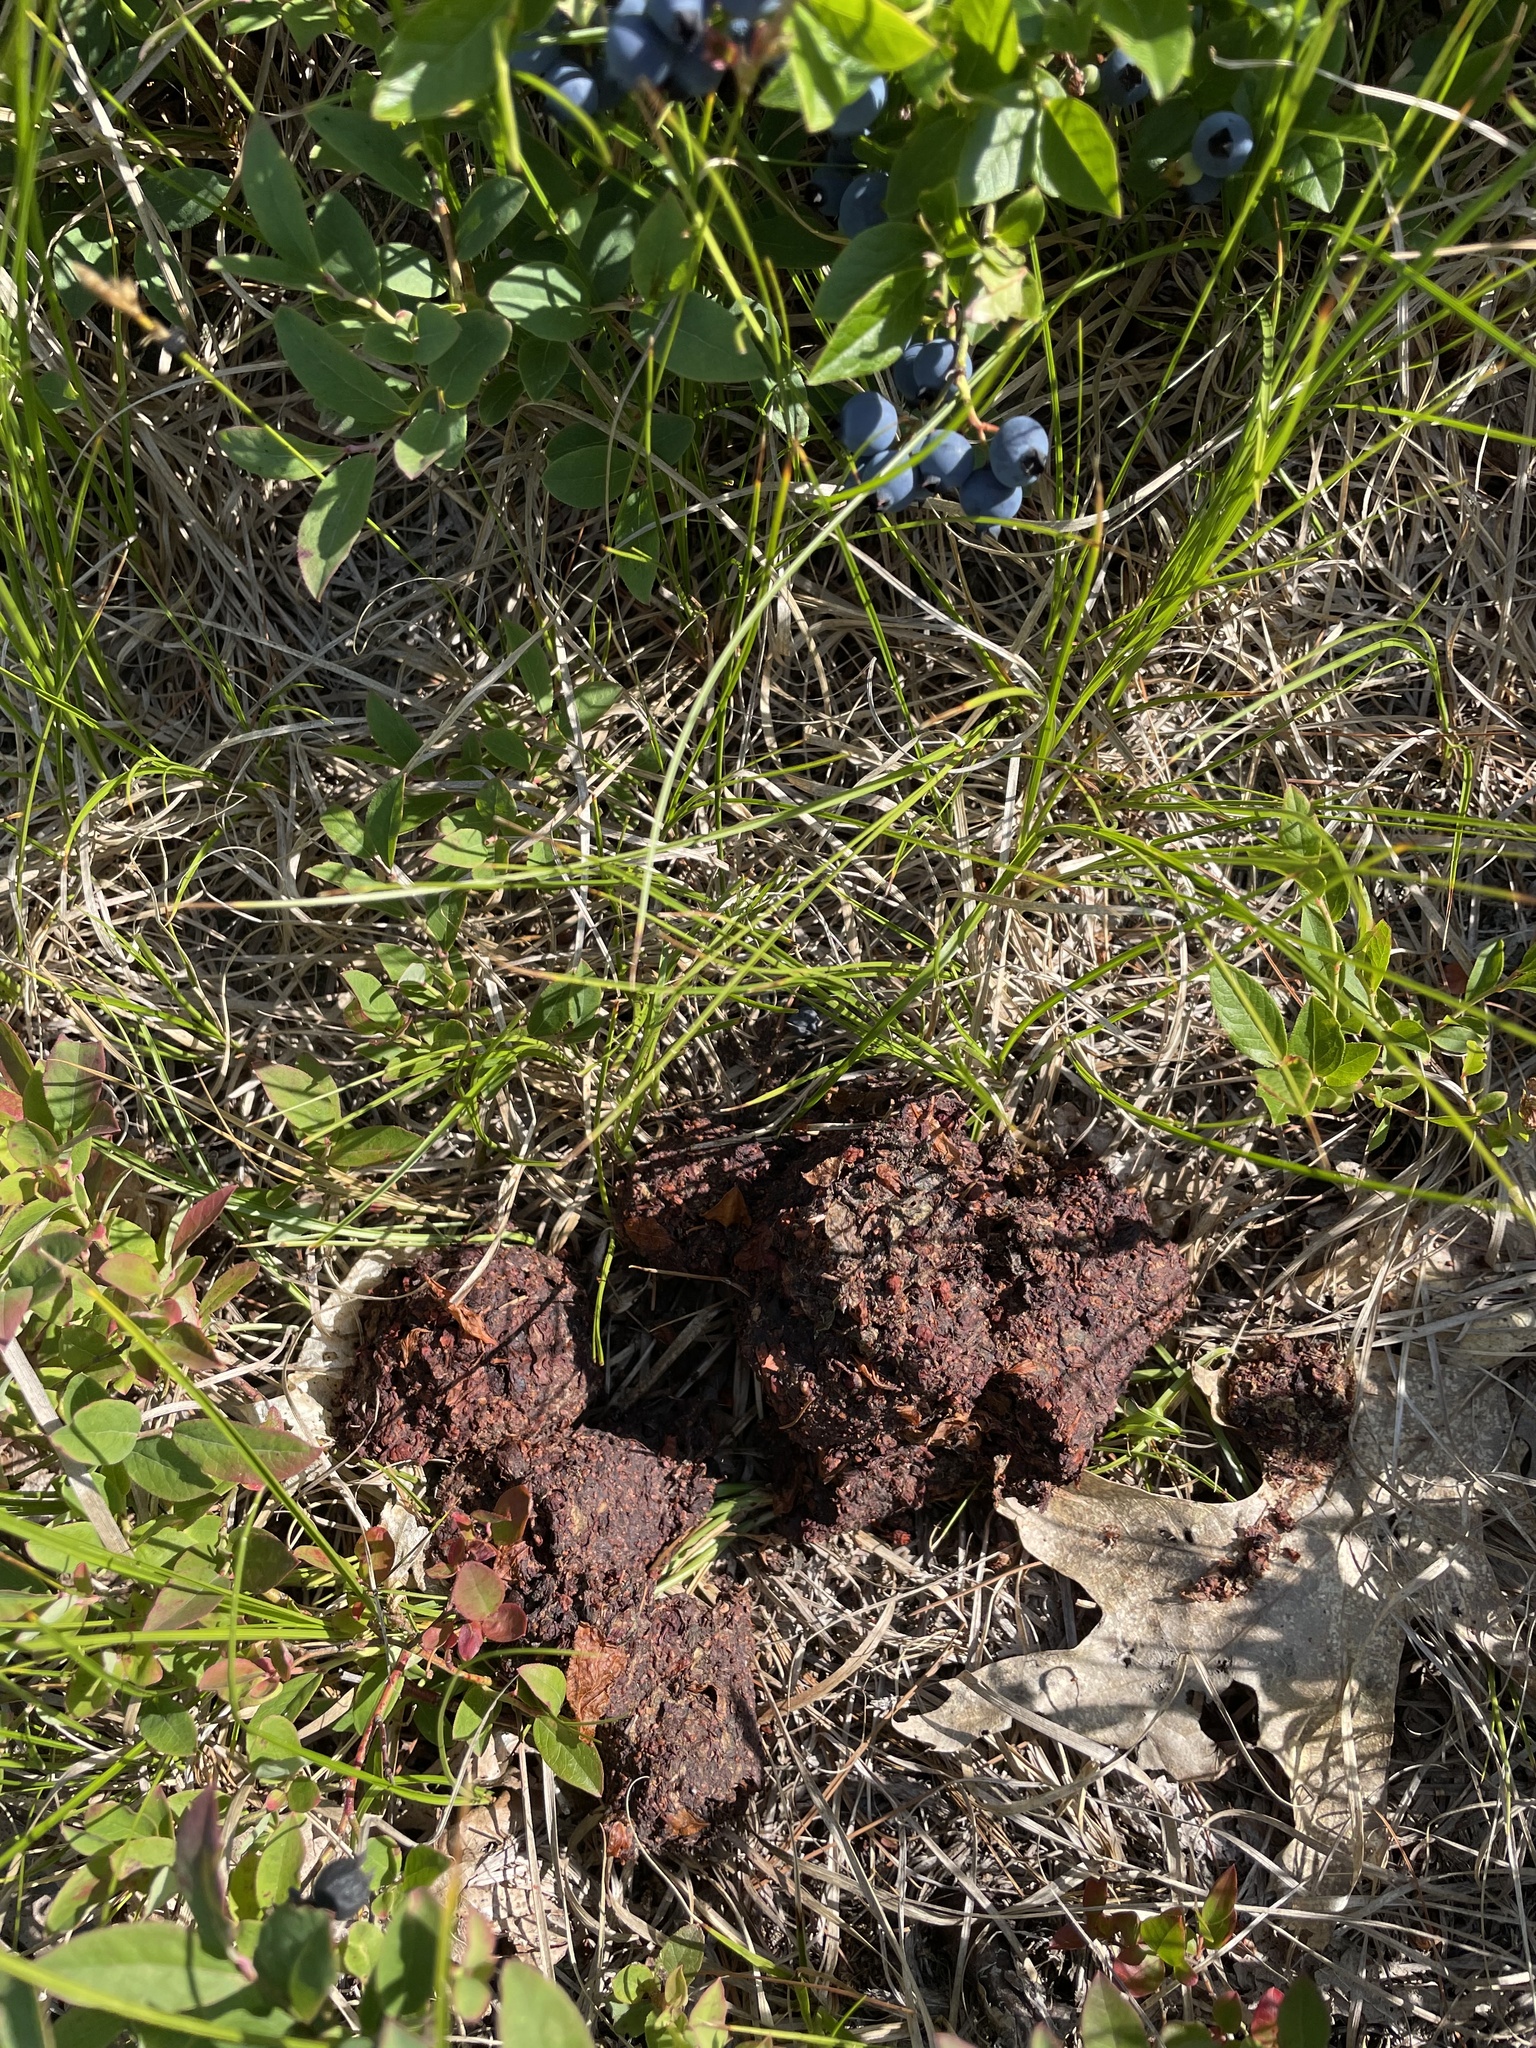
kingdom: Animalia
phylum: Chordata
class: Mammalia
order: Carnivora
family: Ursidae
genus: Ursus
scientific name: Ursus americanus
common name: American black bear
